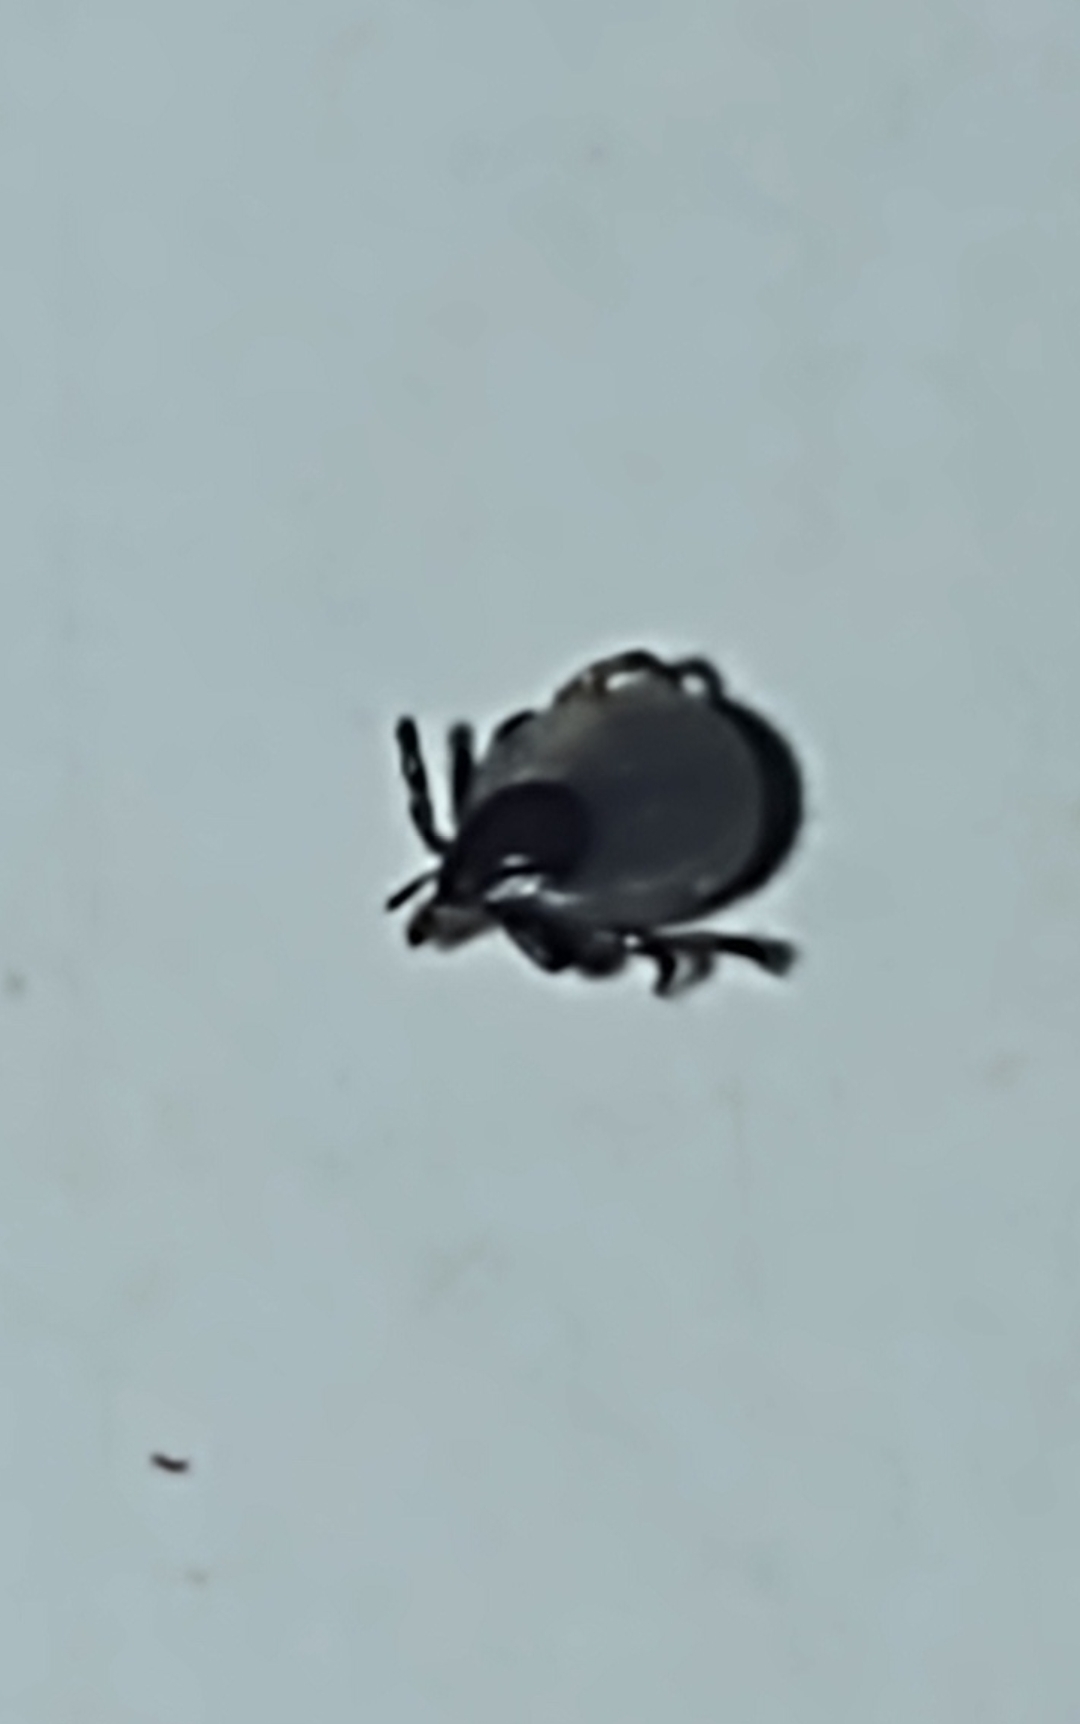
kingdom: Animalia
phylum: Arthropoda
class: Arachnida
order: Ixodida
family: Ixodidae
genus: Ixodes
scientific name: Ixodes ricinus
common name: Castor bean tick
